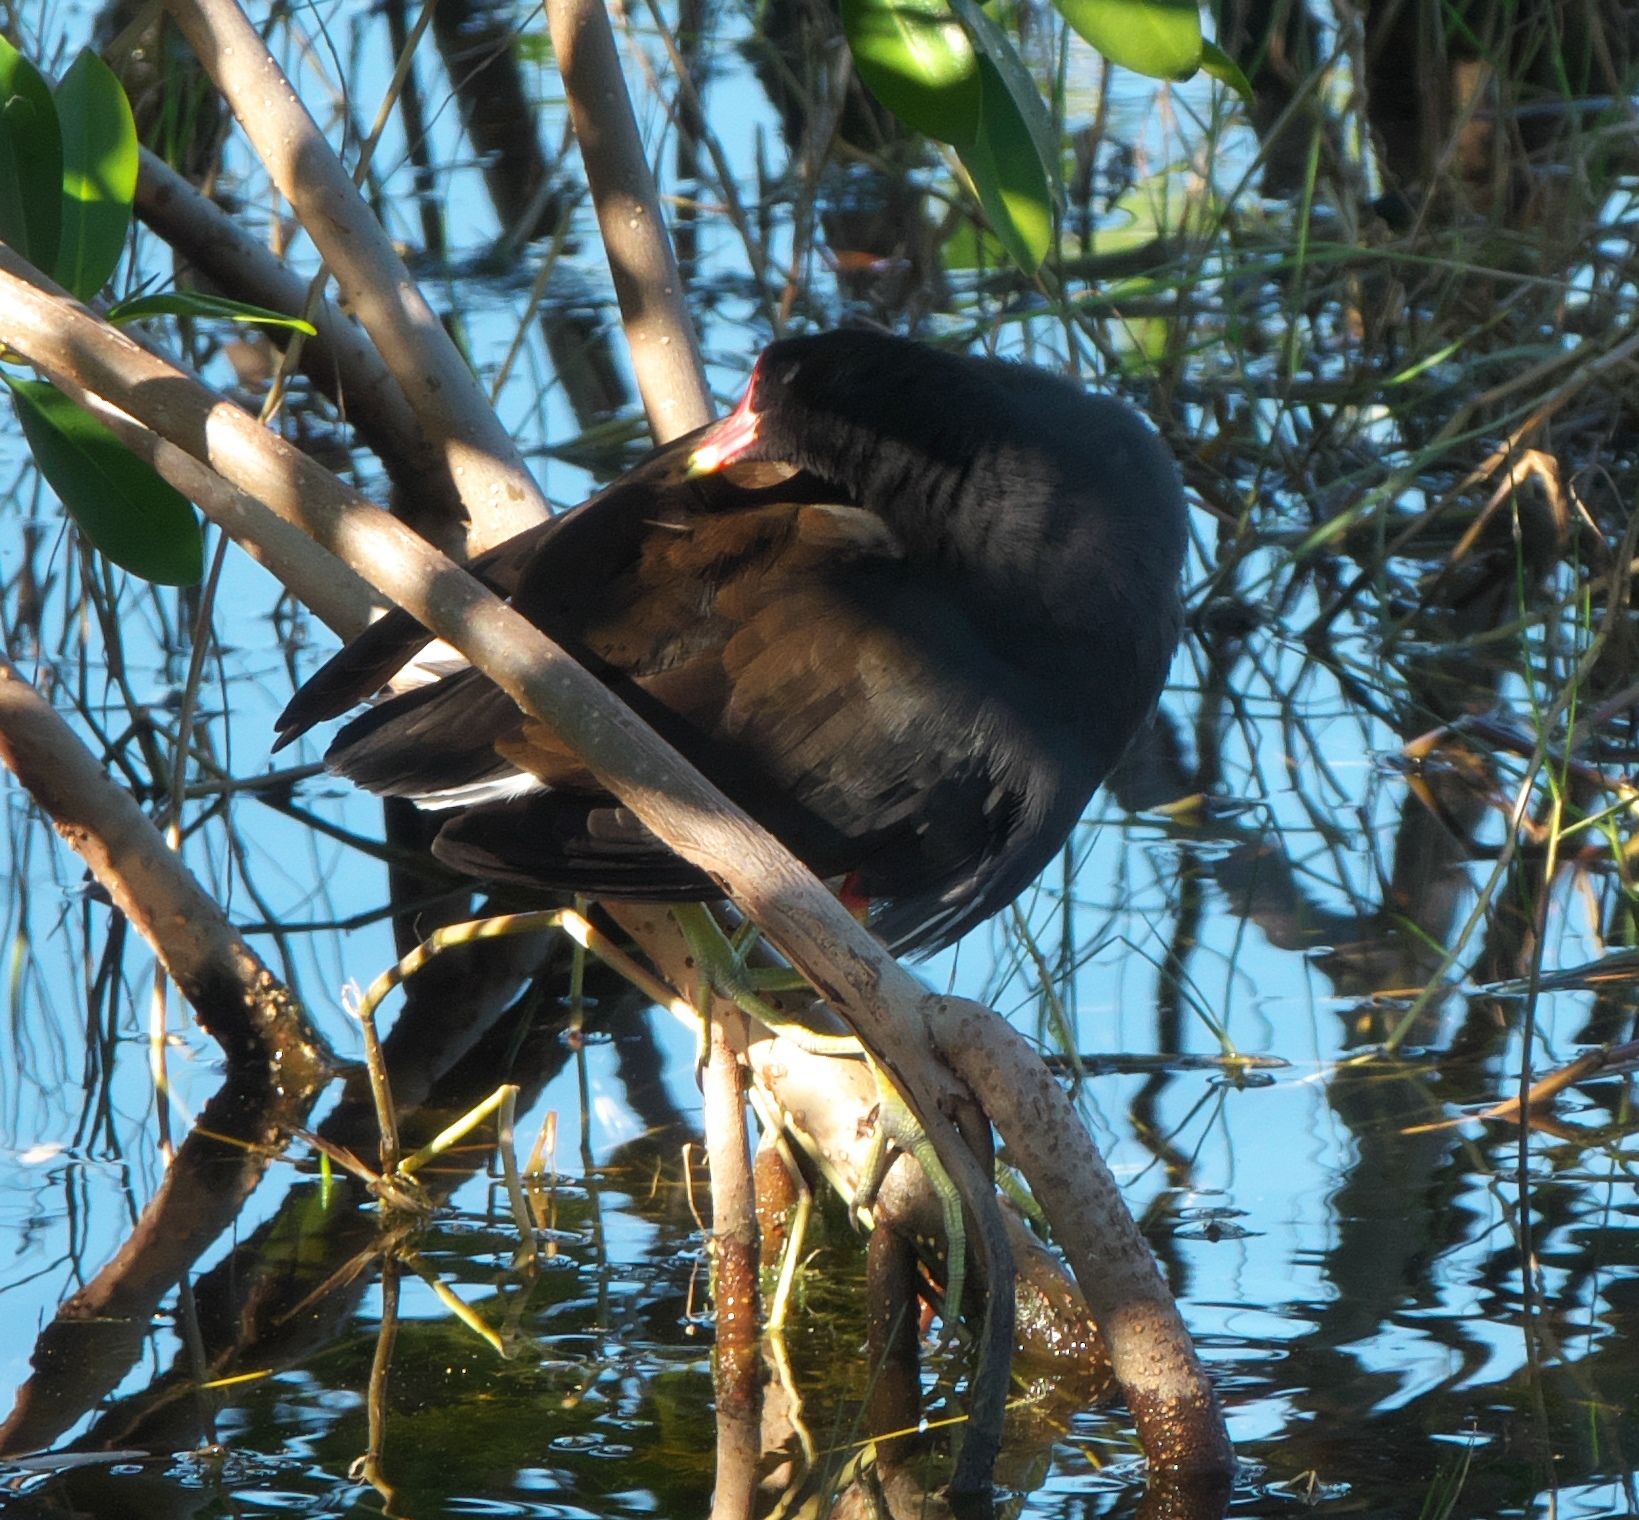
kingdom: Animalia
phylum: Chordata
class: Aves
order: Gruiformes
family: Rallidae
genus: Gallinula
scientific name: Gallinula chloropus
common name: Common moorhen
